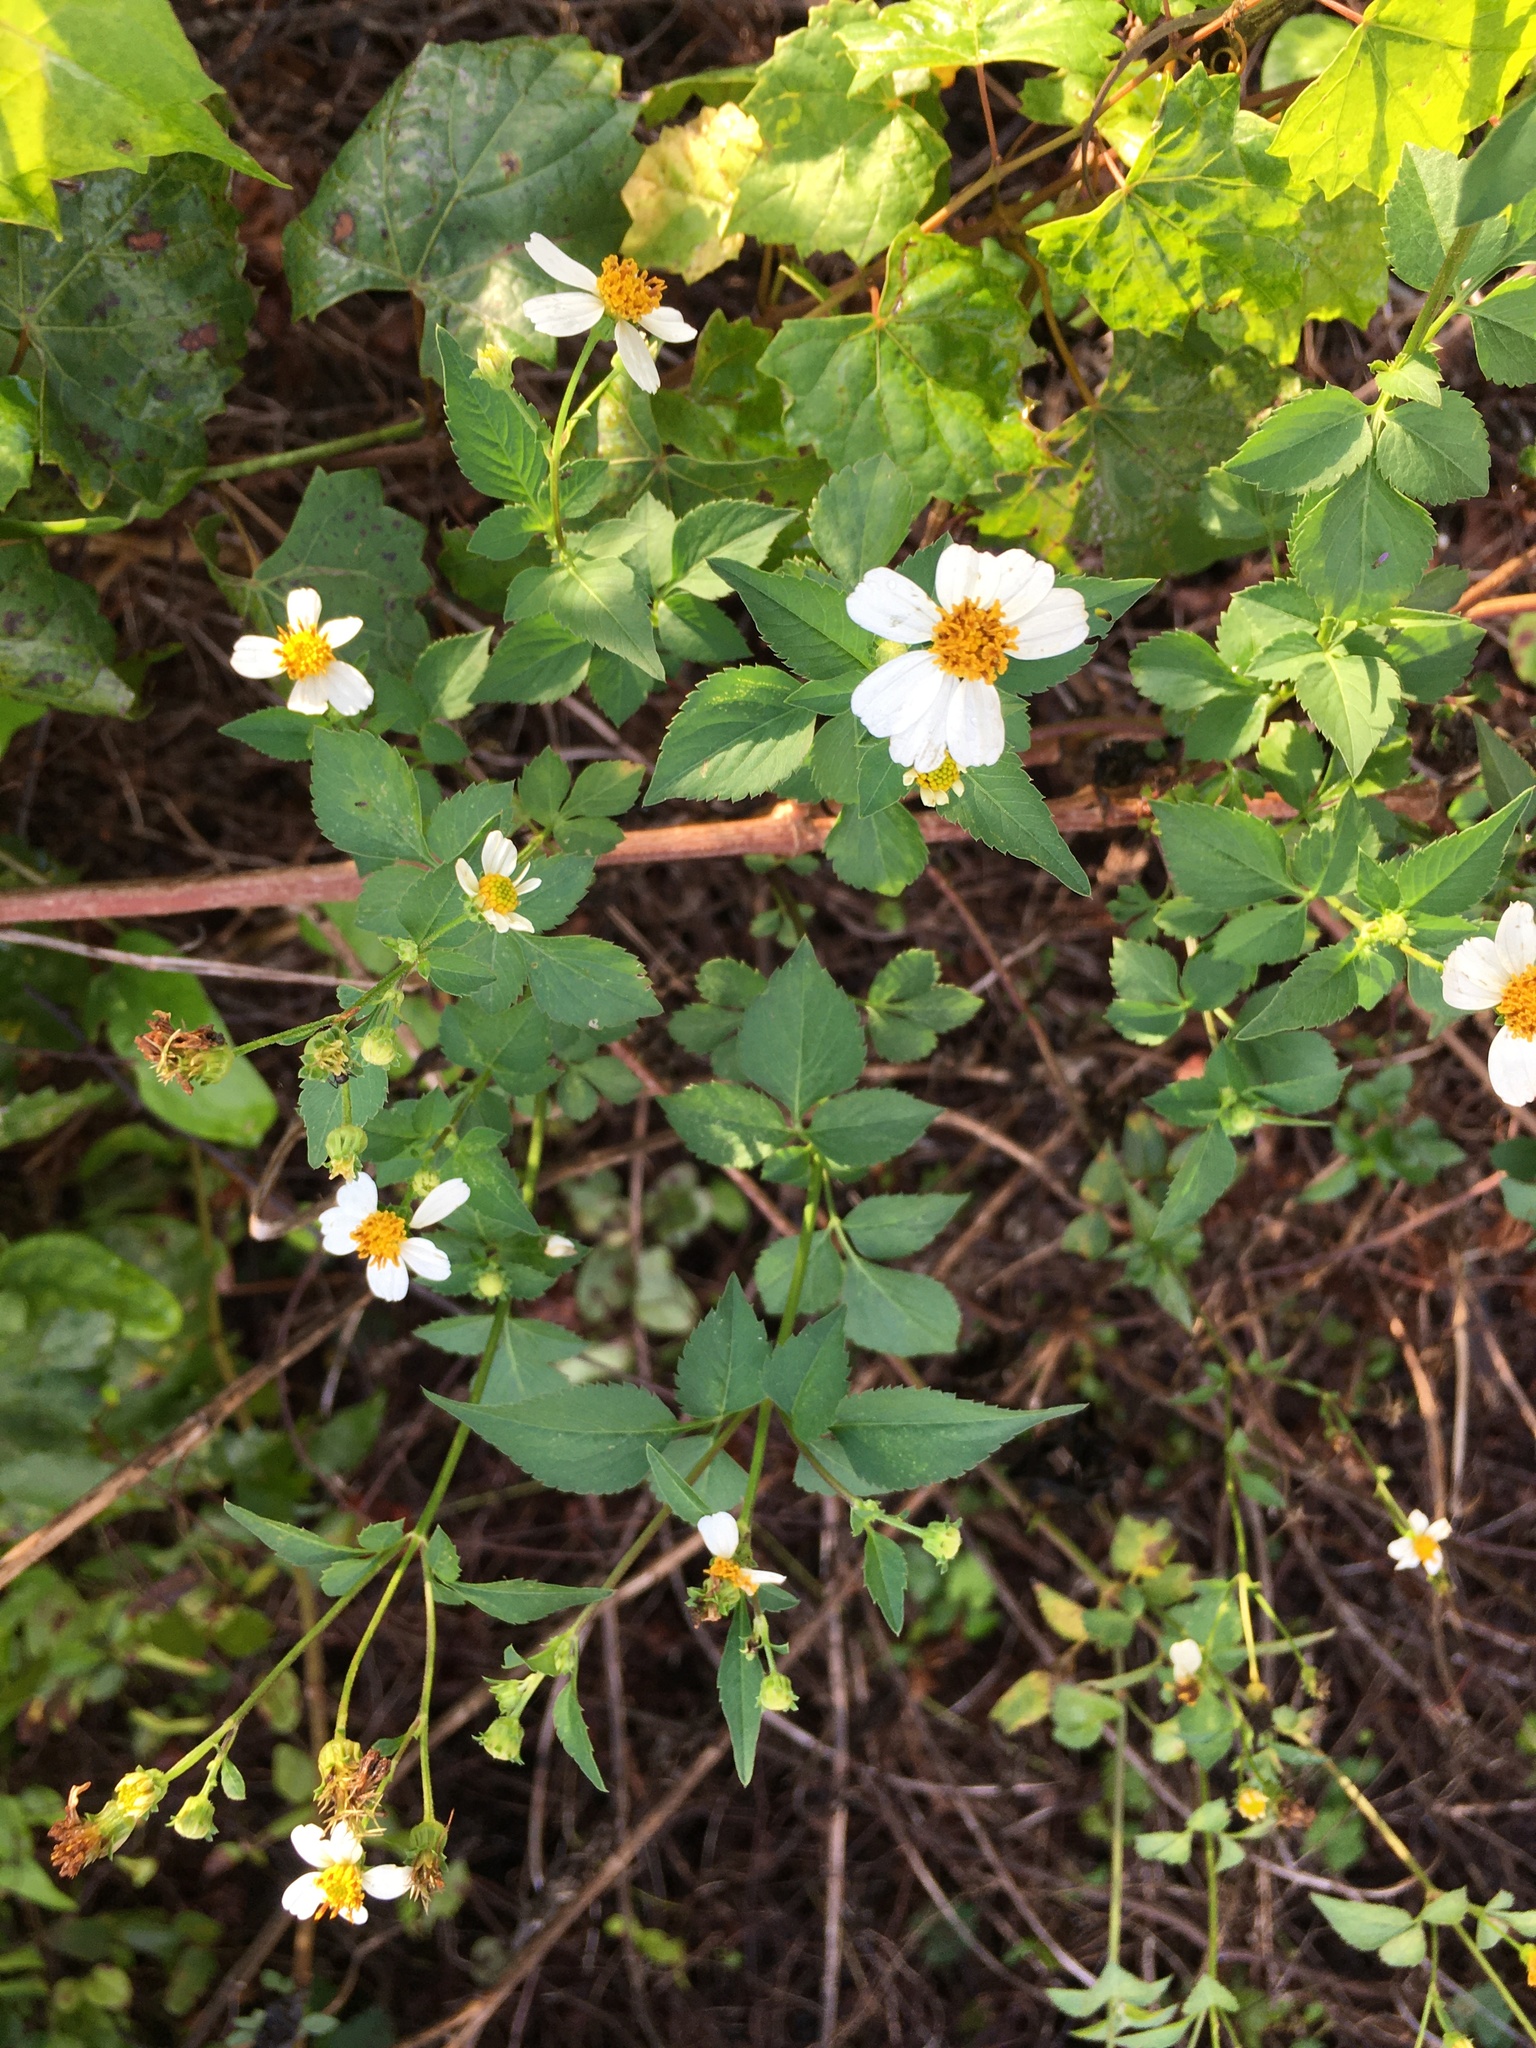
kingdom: Plantae
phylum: Tracheophyta
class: Magnoliopsida
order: Asterales
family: Asteraceae
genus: Bidens
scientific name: Bidens alba
